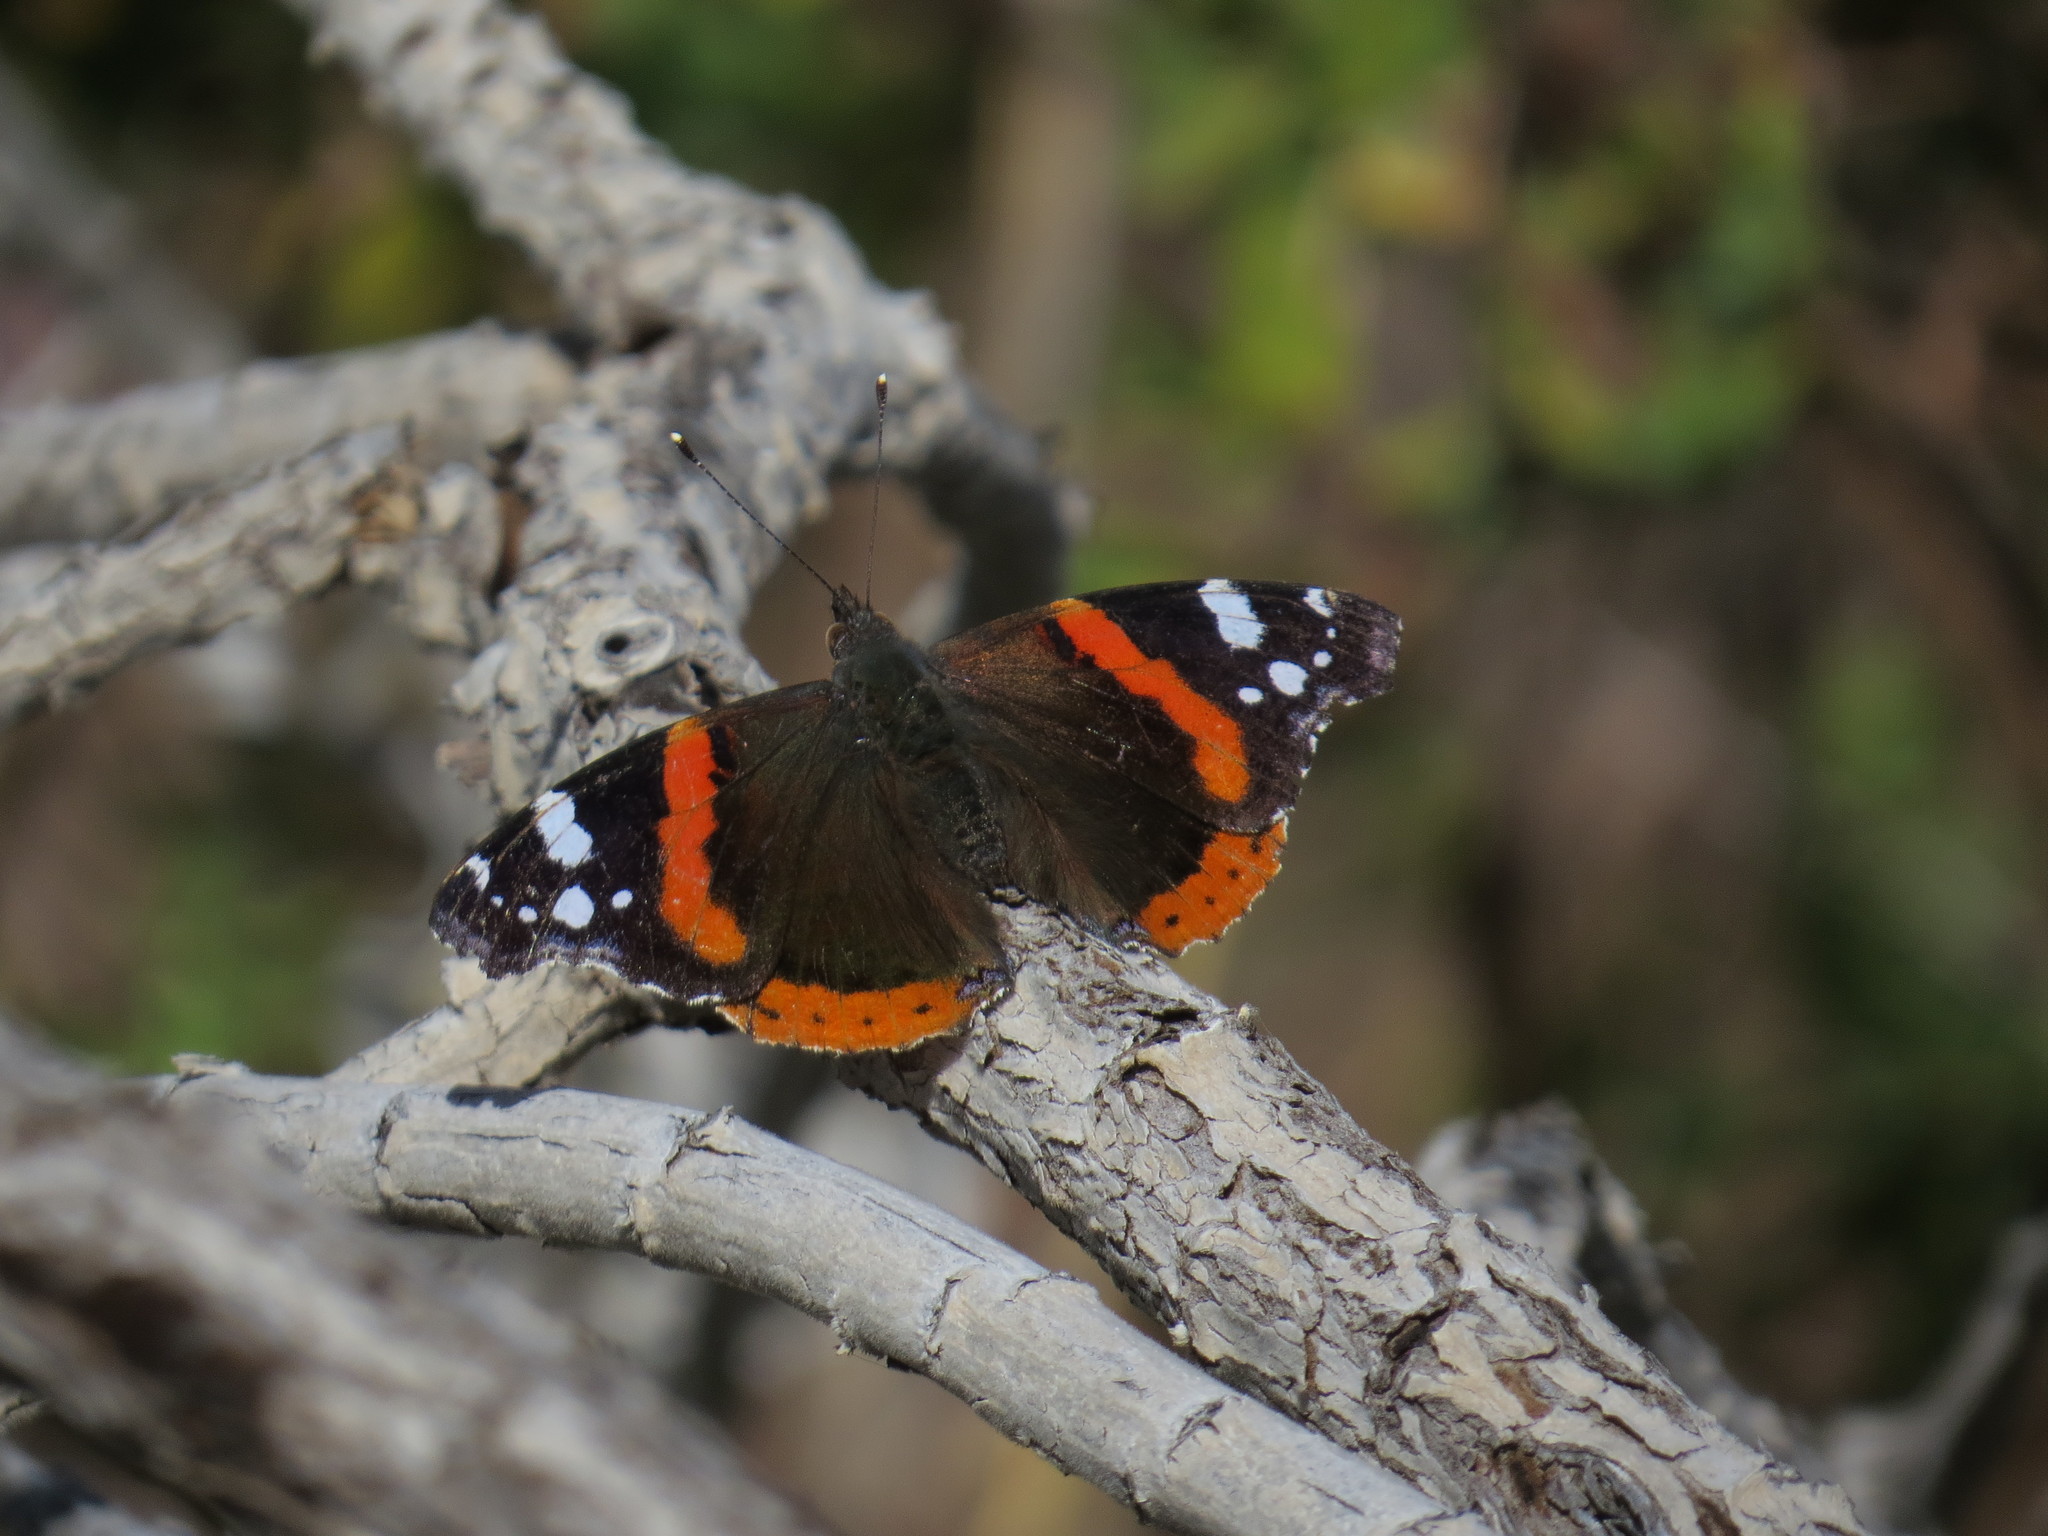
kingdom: Animalia
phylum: Arthropoda
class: Insecta
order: Lepidoptera
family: Nymphalidae
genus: Vanessa
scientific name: Vanessa atalanta
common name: Red admiral
